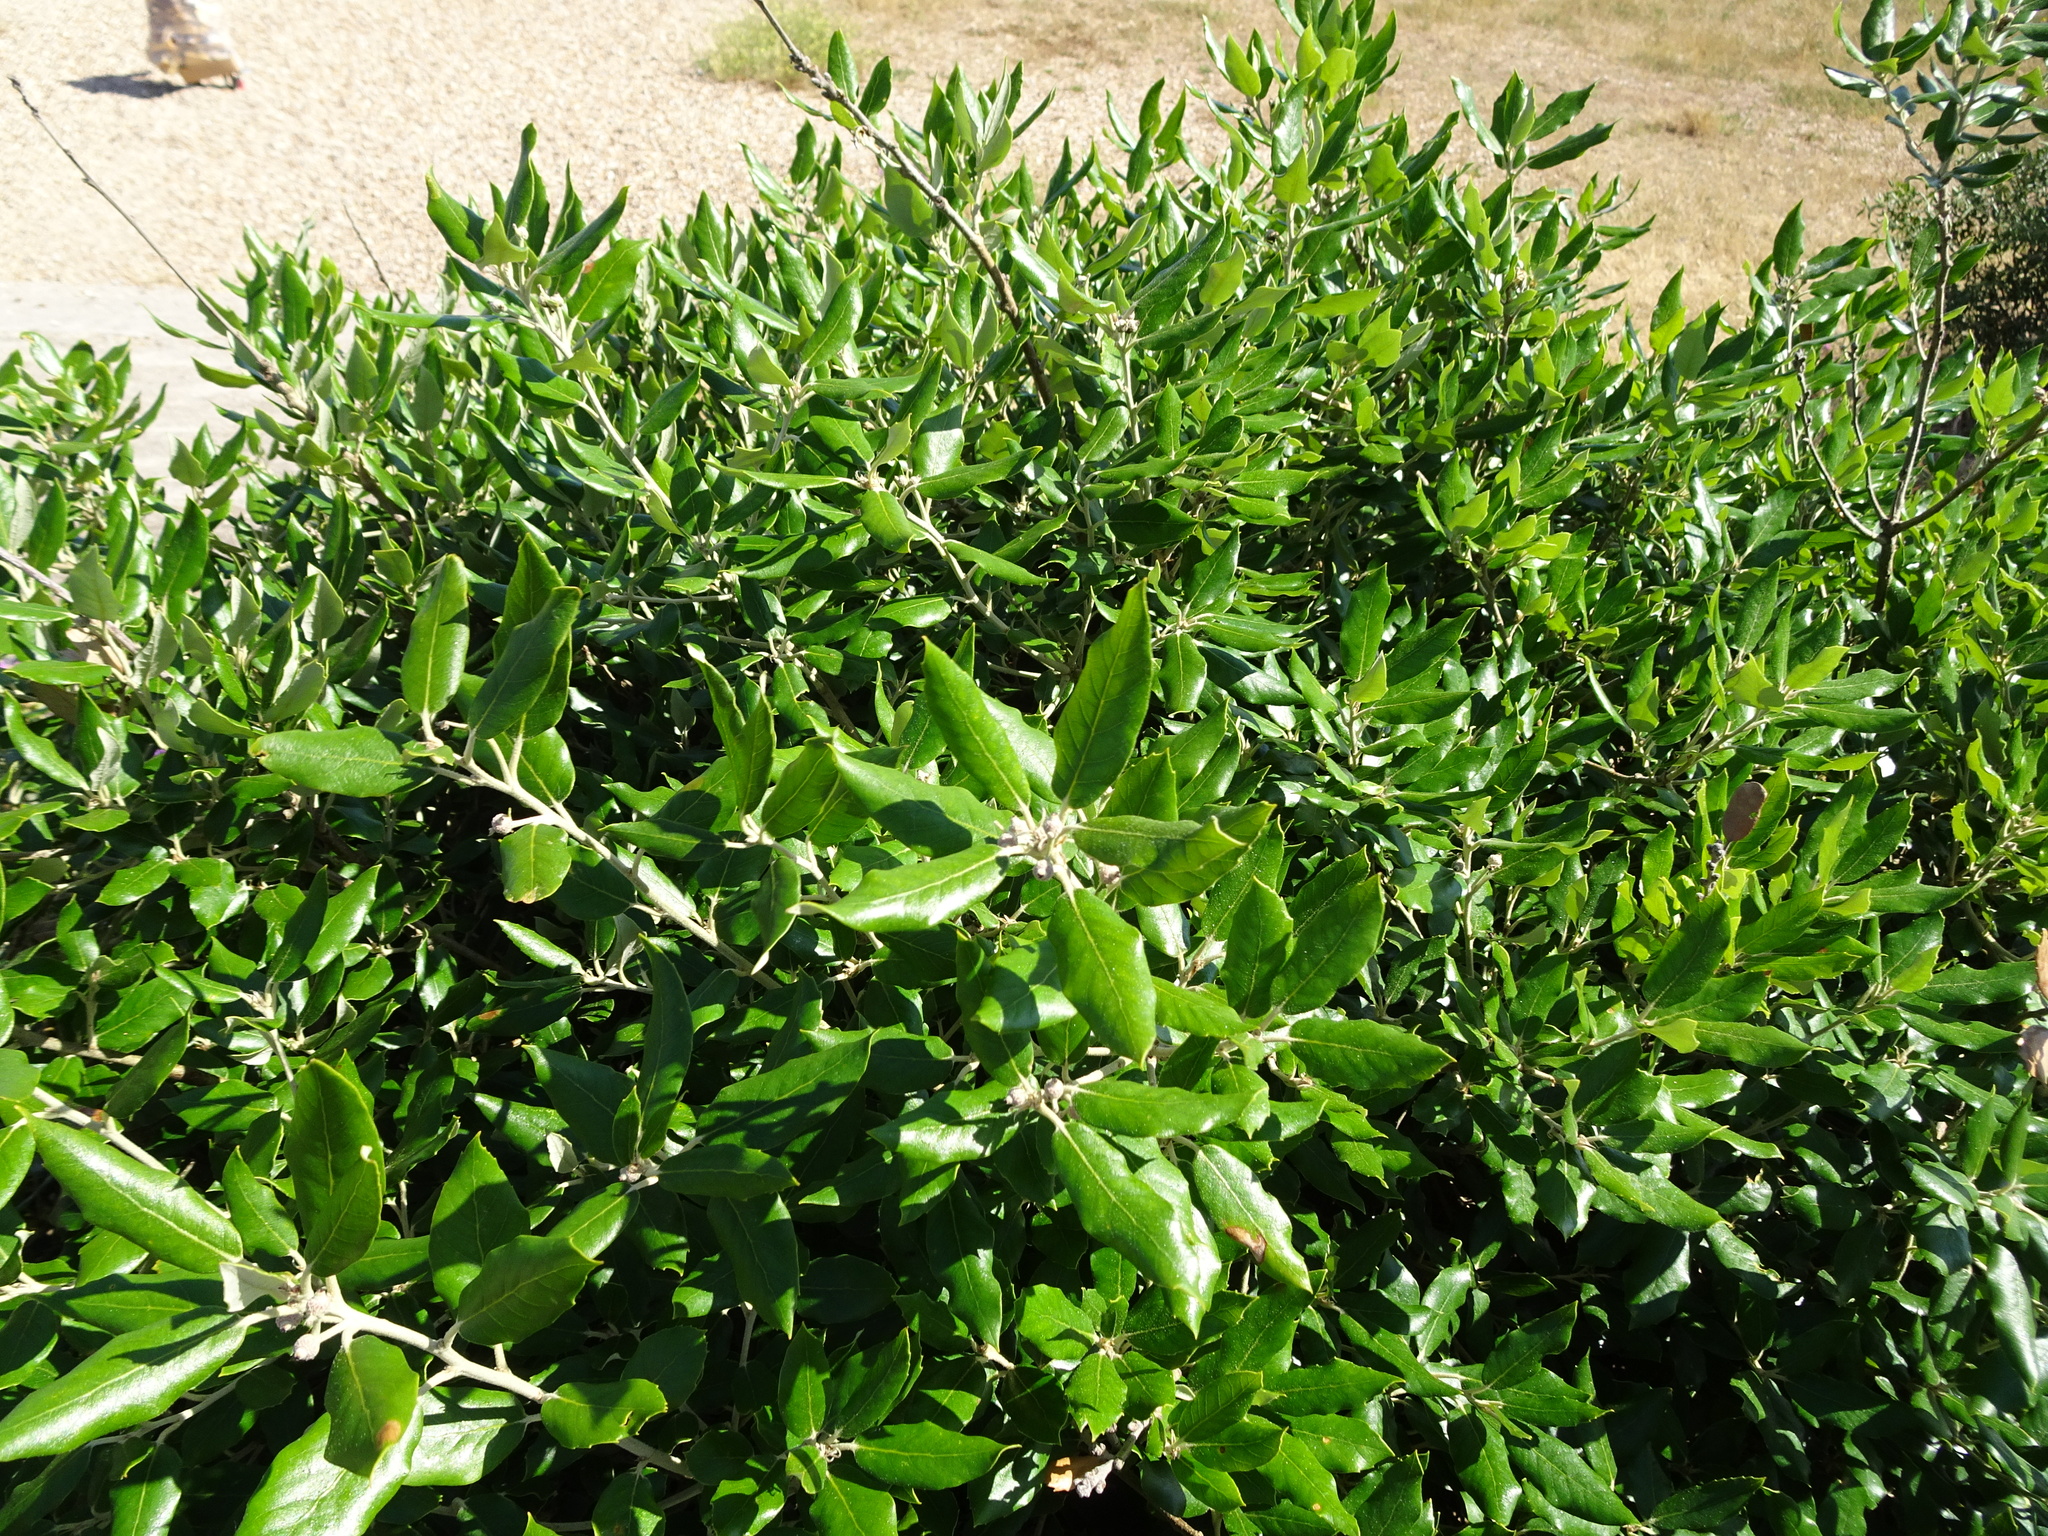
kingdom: Plantae
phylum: Tracheophyta
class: Magnoliopsida
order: Fagales
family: Fagaceae
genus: Quercus
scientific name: Quercus ilex
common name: Evergreen oak
